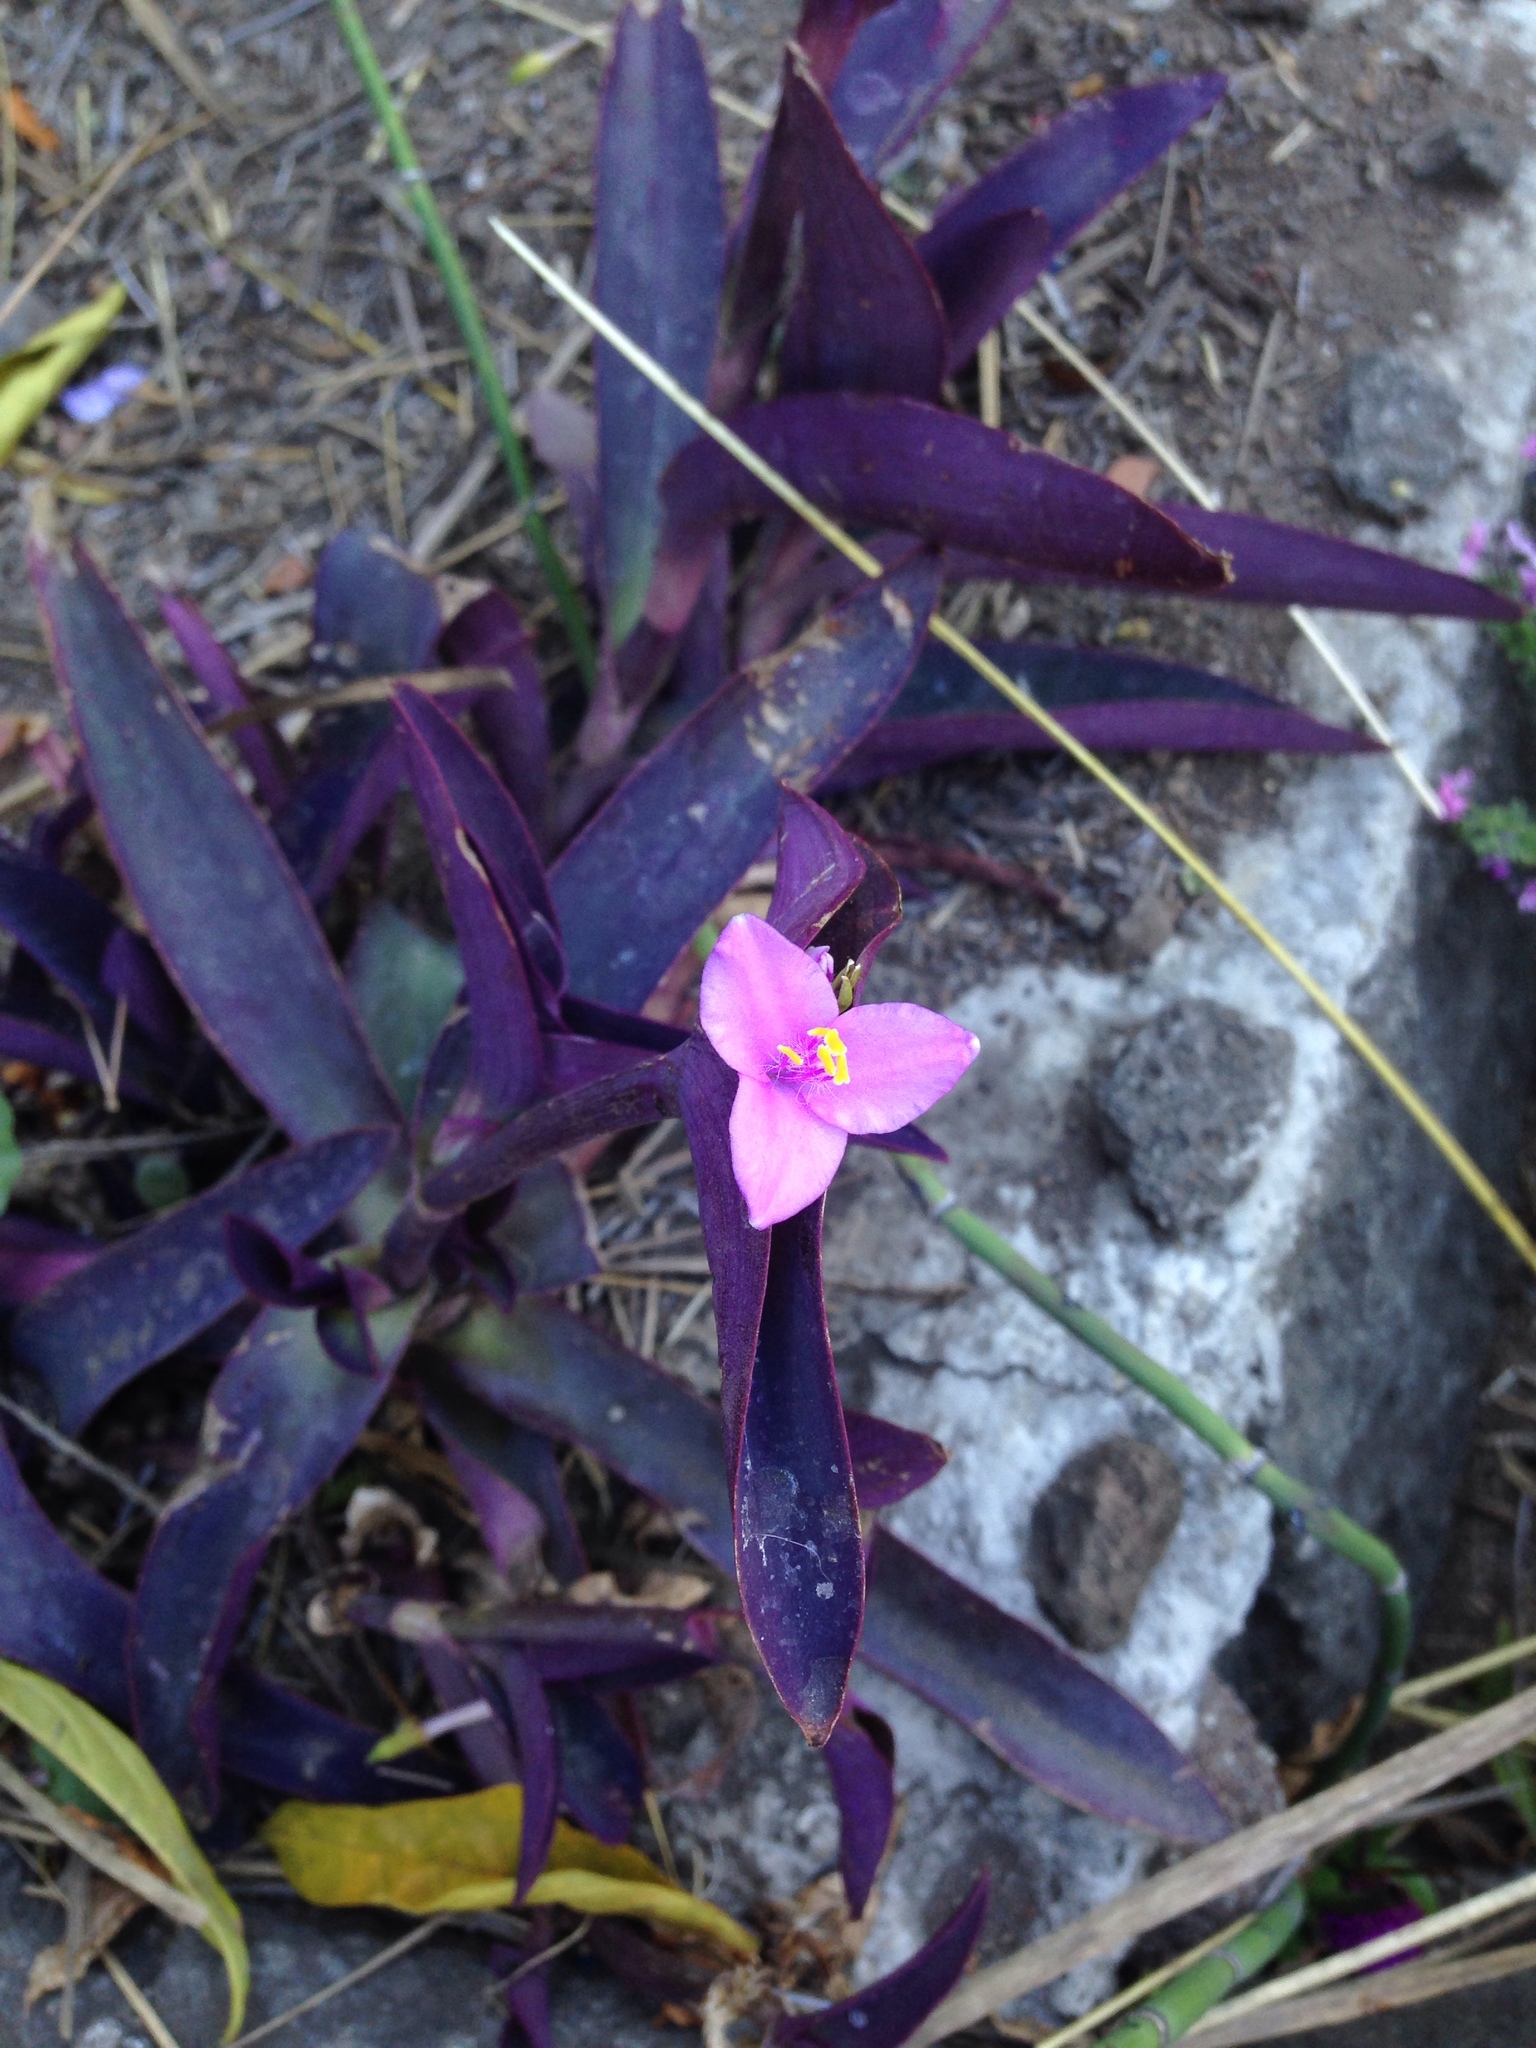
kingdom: Plantae
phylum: Tracheophyta
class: Liliopsida
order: Commelinales
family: Commelinaceae
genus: Tradescantia
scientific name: Tradescantia pallida
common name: Purpleheart
